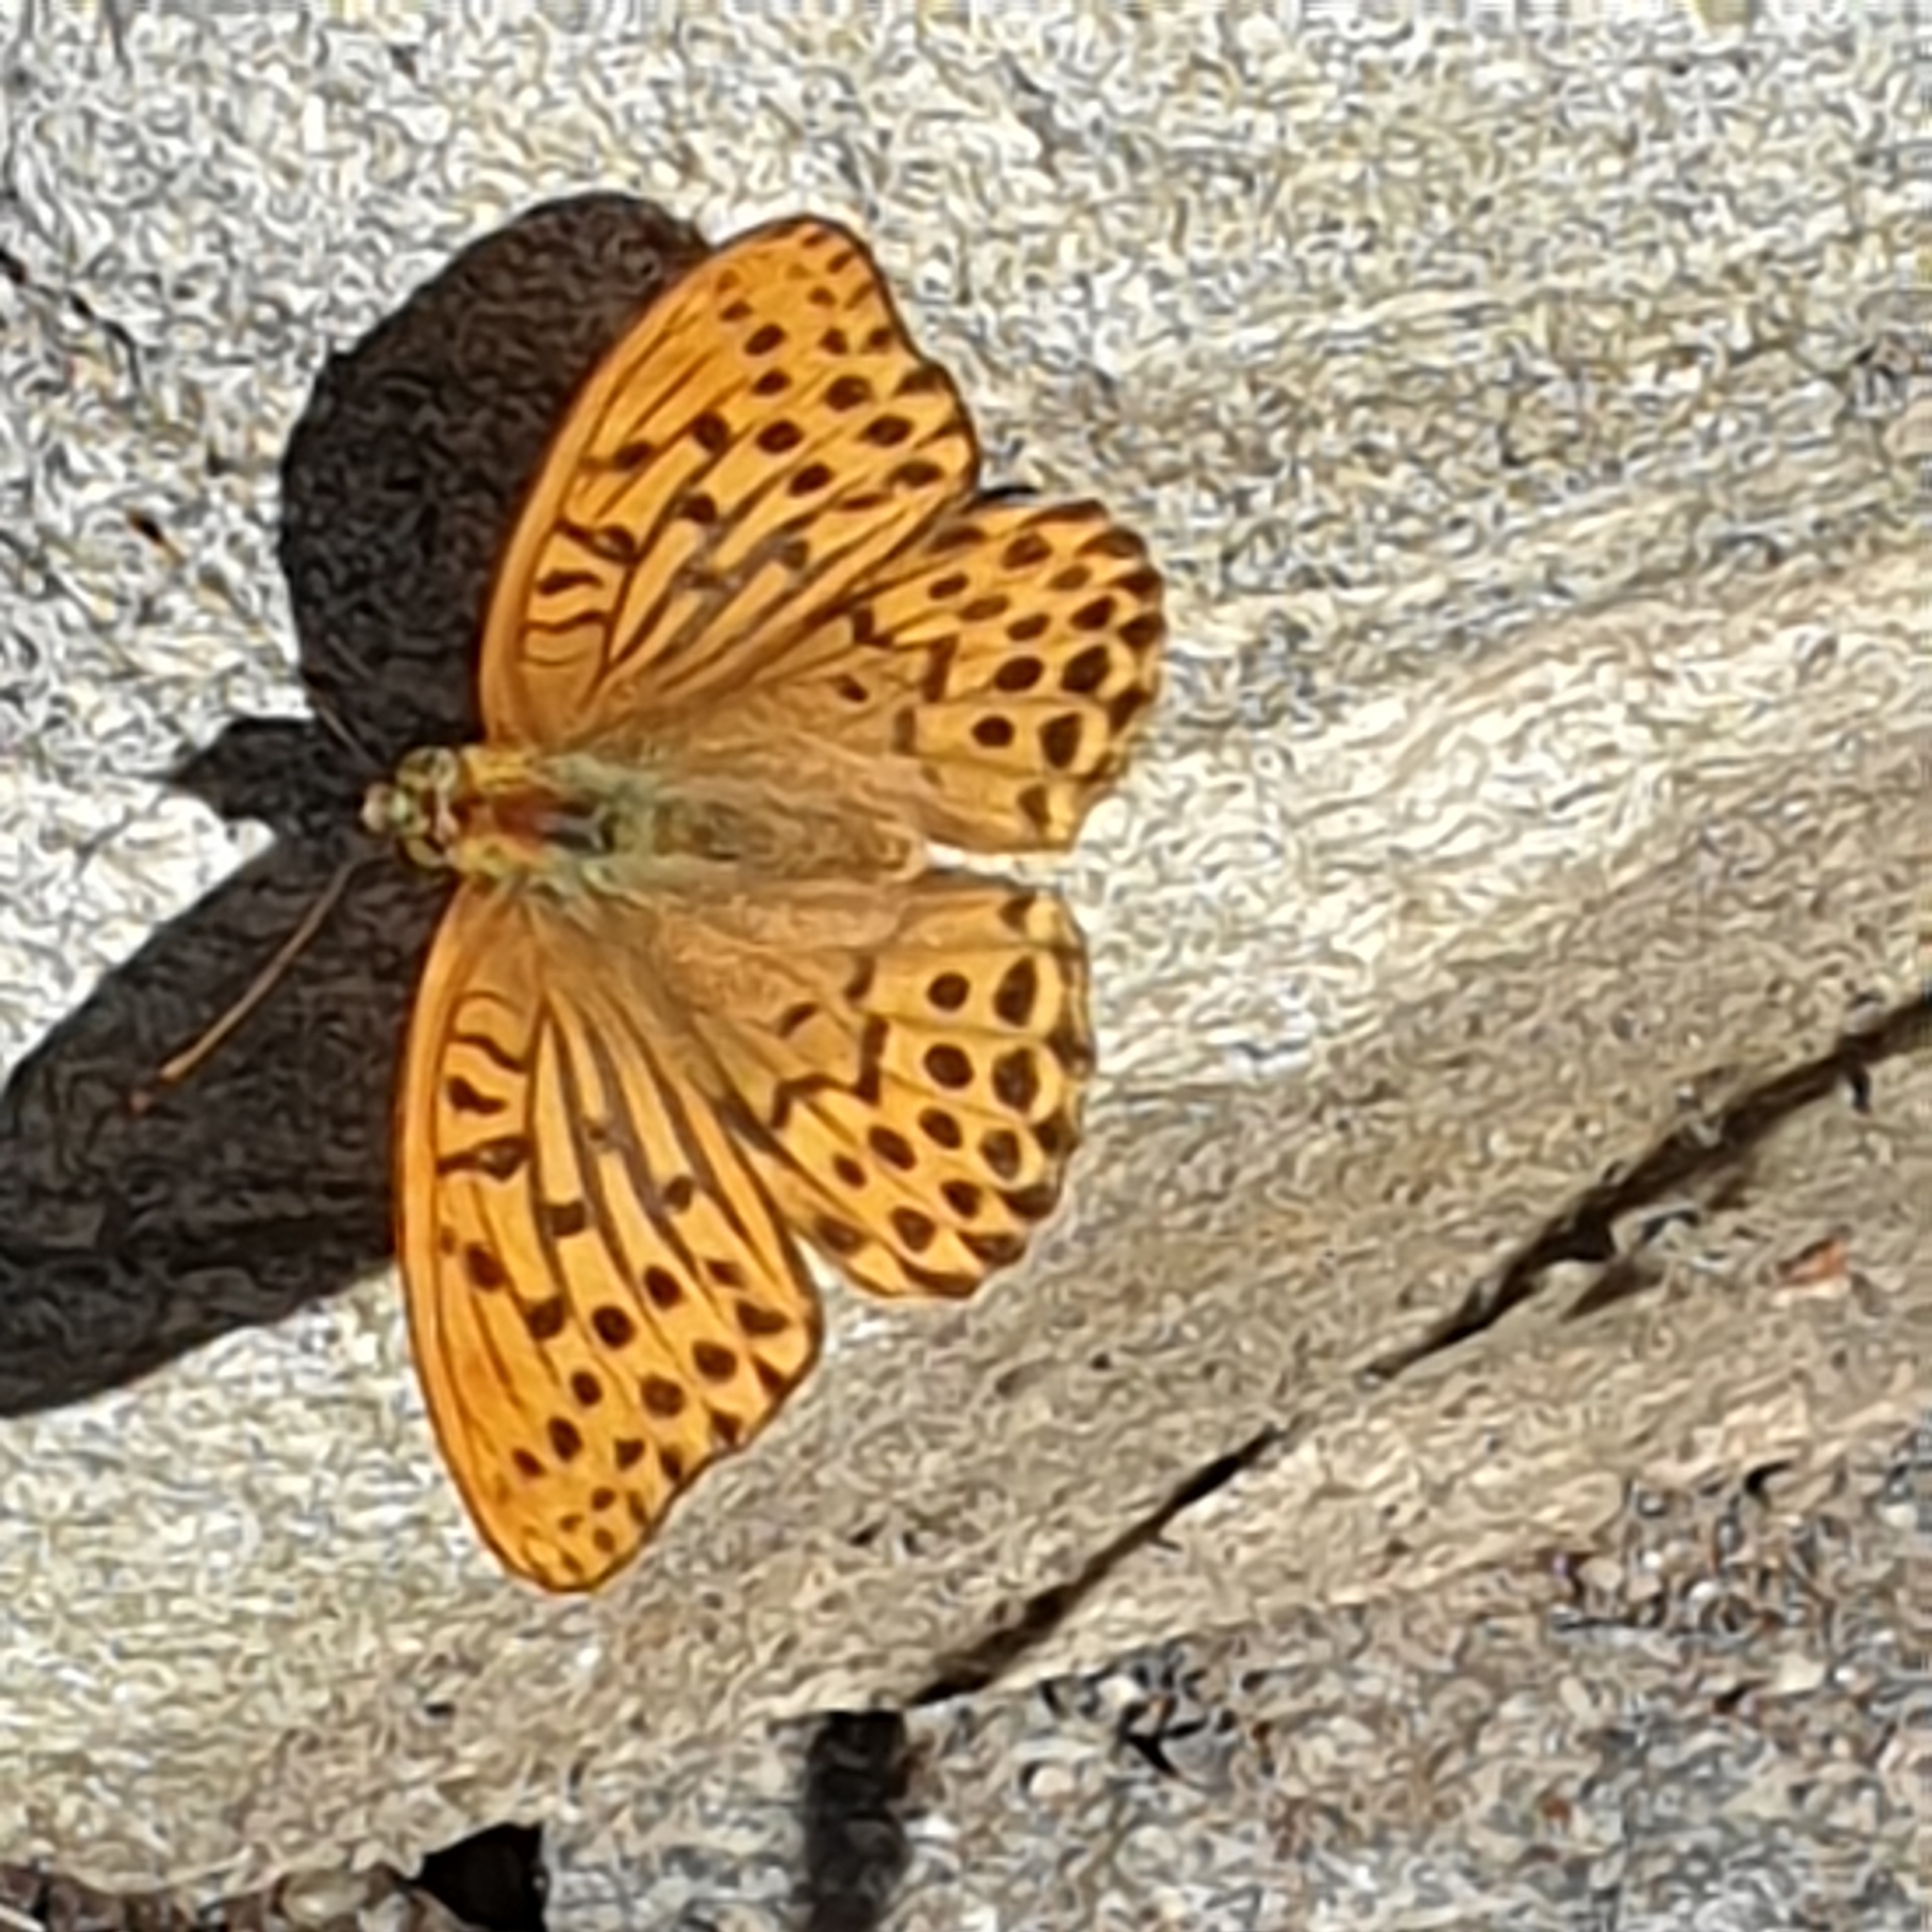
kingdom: Animalia
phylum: Arthropoda
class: Insecta
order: Lepidoptera
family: Nymphalidae
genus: Argynnis
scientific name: Argynnis paphia
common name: Silver-washed fritillary
